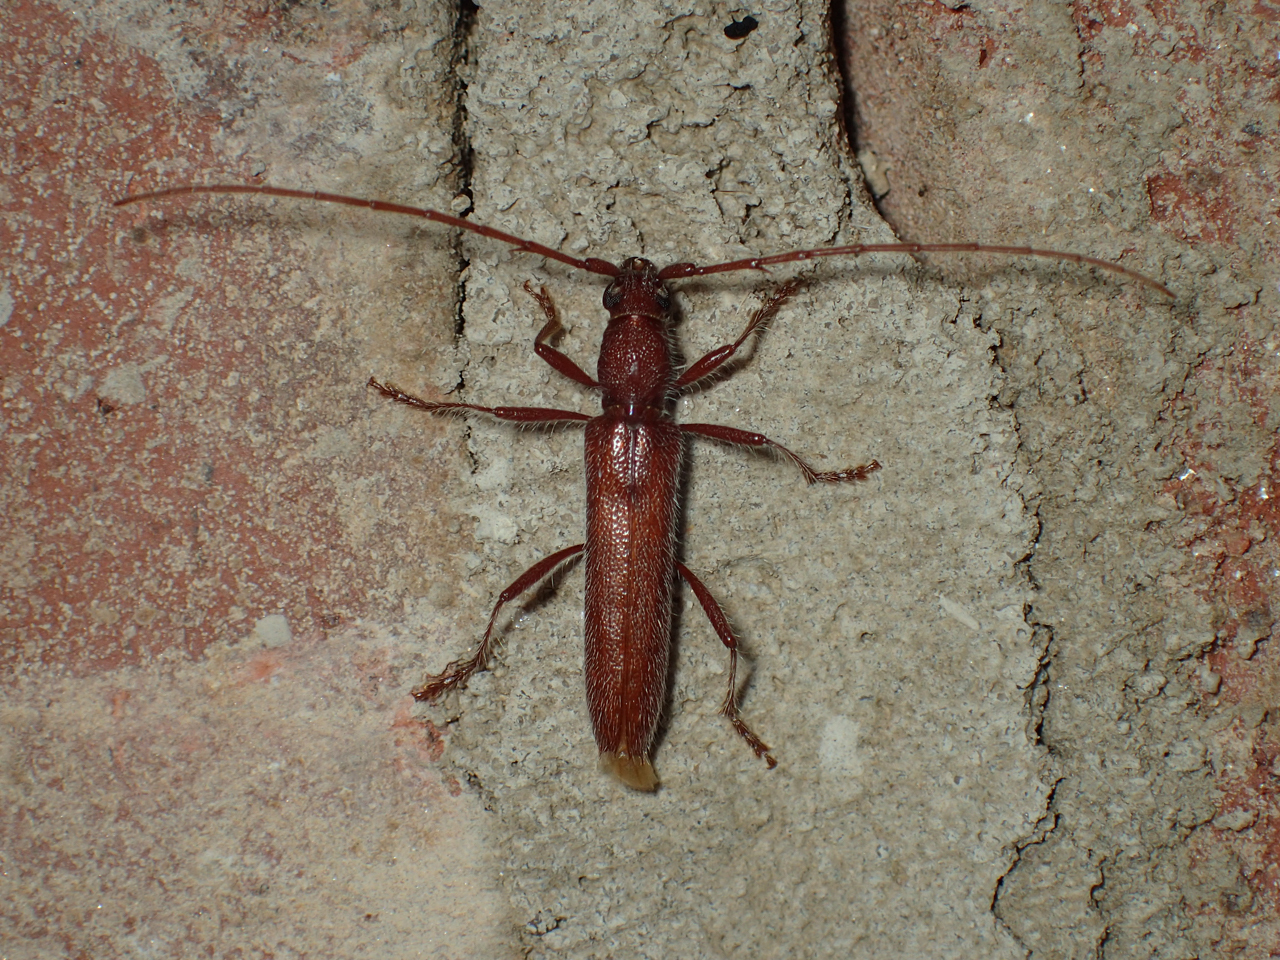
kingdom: Animalia
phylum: Arthropoda
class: Insecta
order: Coleoptera
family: Cerambycidae
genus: Aneflomorpha
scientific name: Aneflomorpha aculeata
